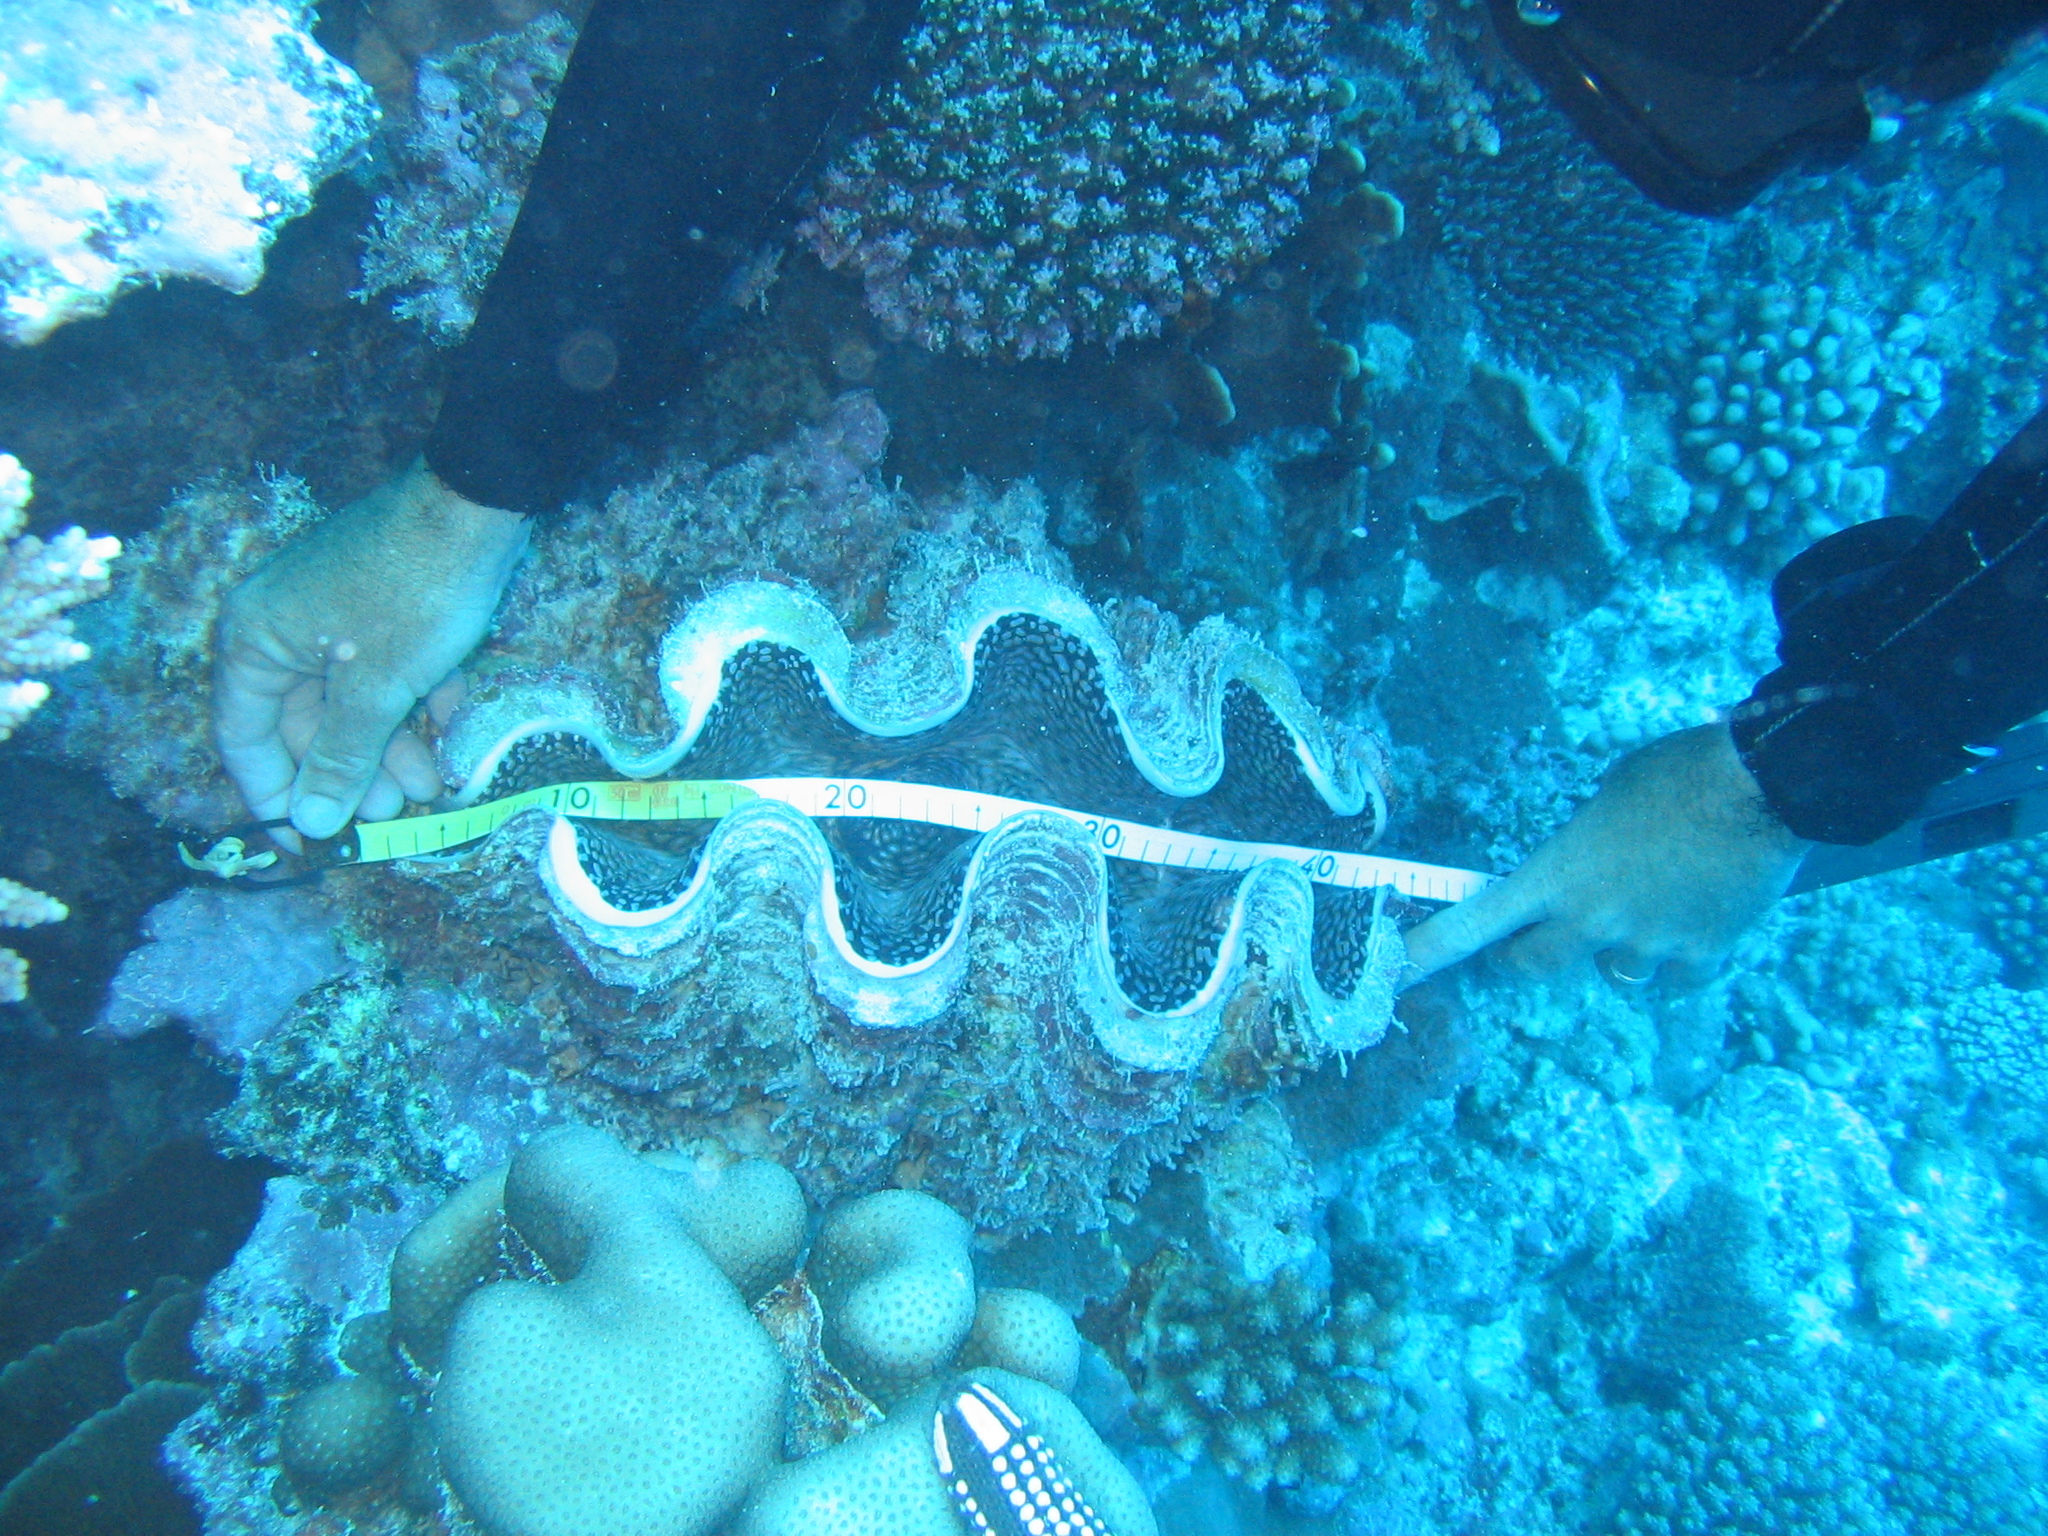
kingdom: Animalia
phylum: Mollusca
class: Bivalvia
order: Cardiida
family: Cardiidae
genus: Tridacna
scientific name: Tridacna squamosa
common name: Fluted clam
